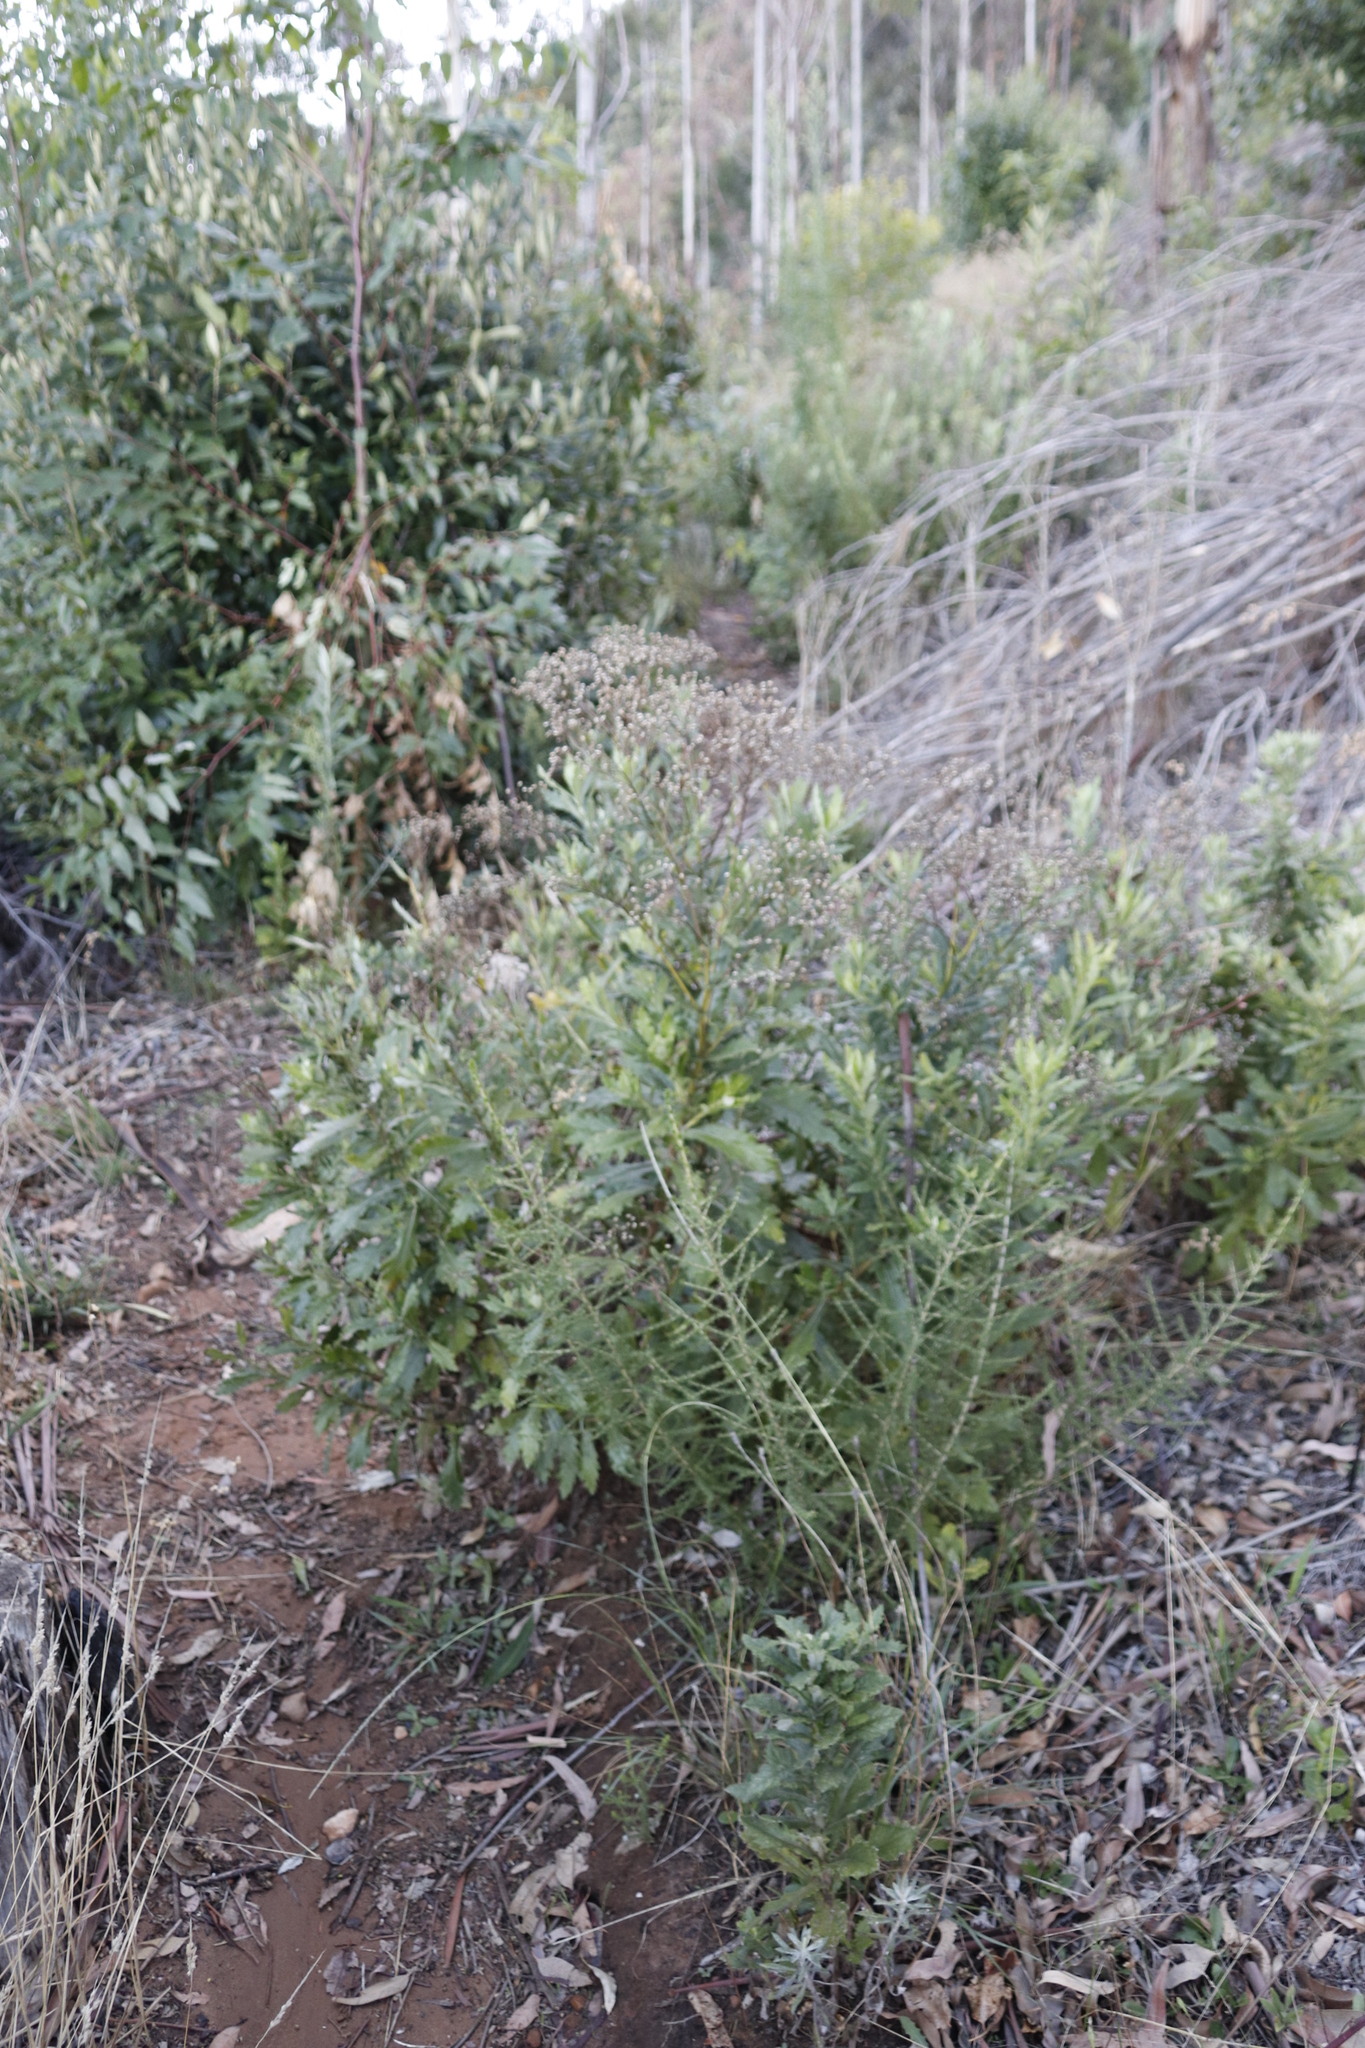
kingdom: Plantae
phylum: Tracheophyta
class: Magnoliopsida
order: Asterales
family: Asteraceae
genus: Senecio
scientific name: Senecio pterophorus
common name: Shoddy ragwort
